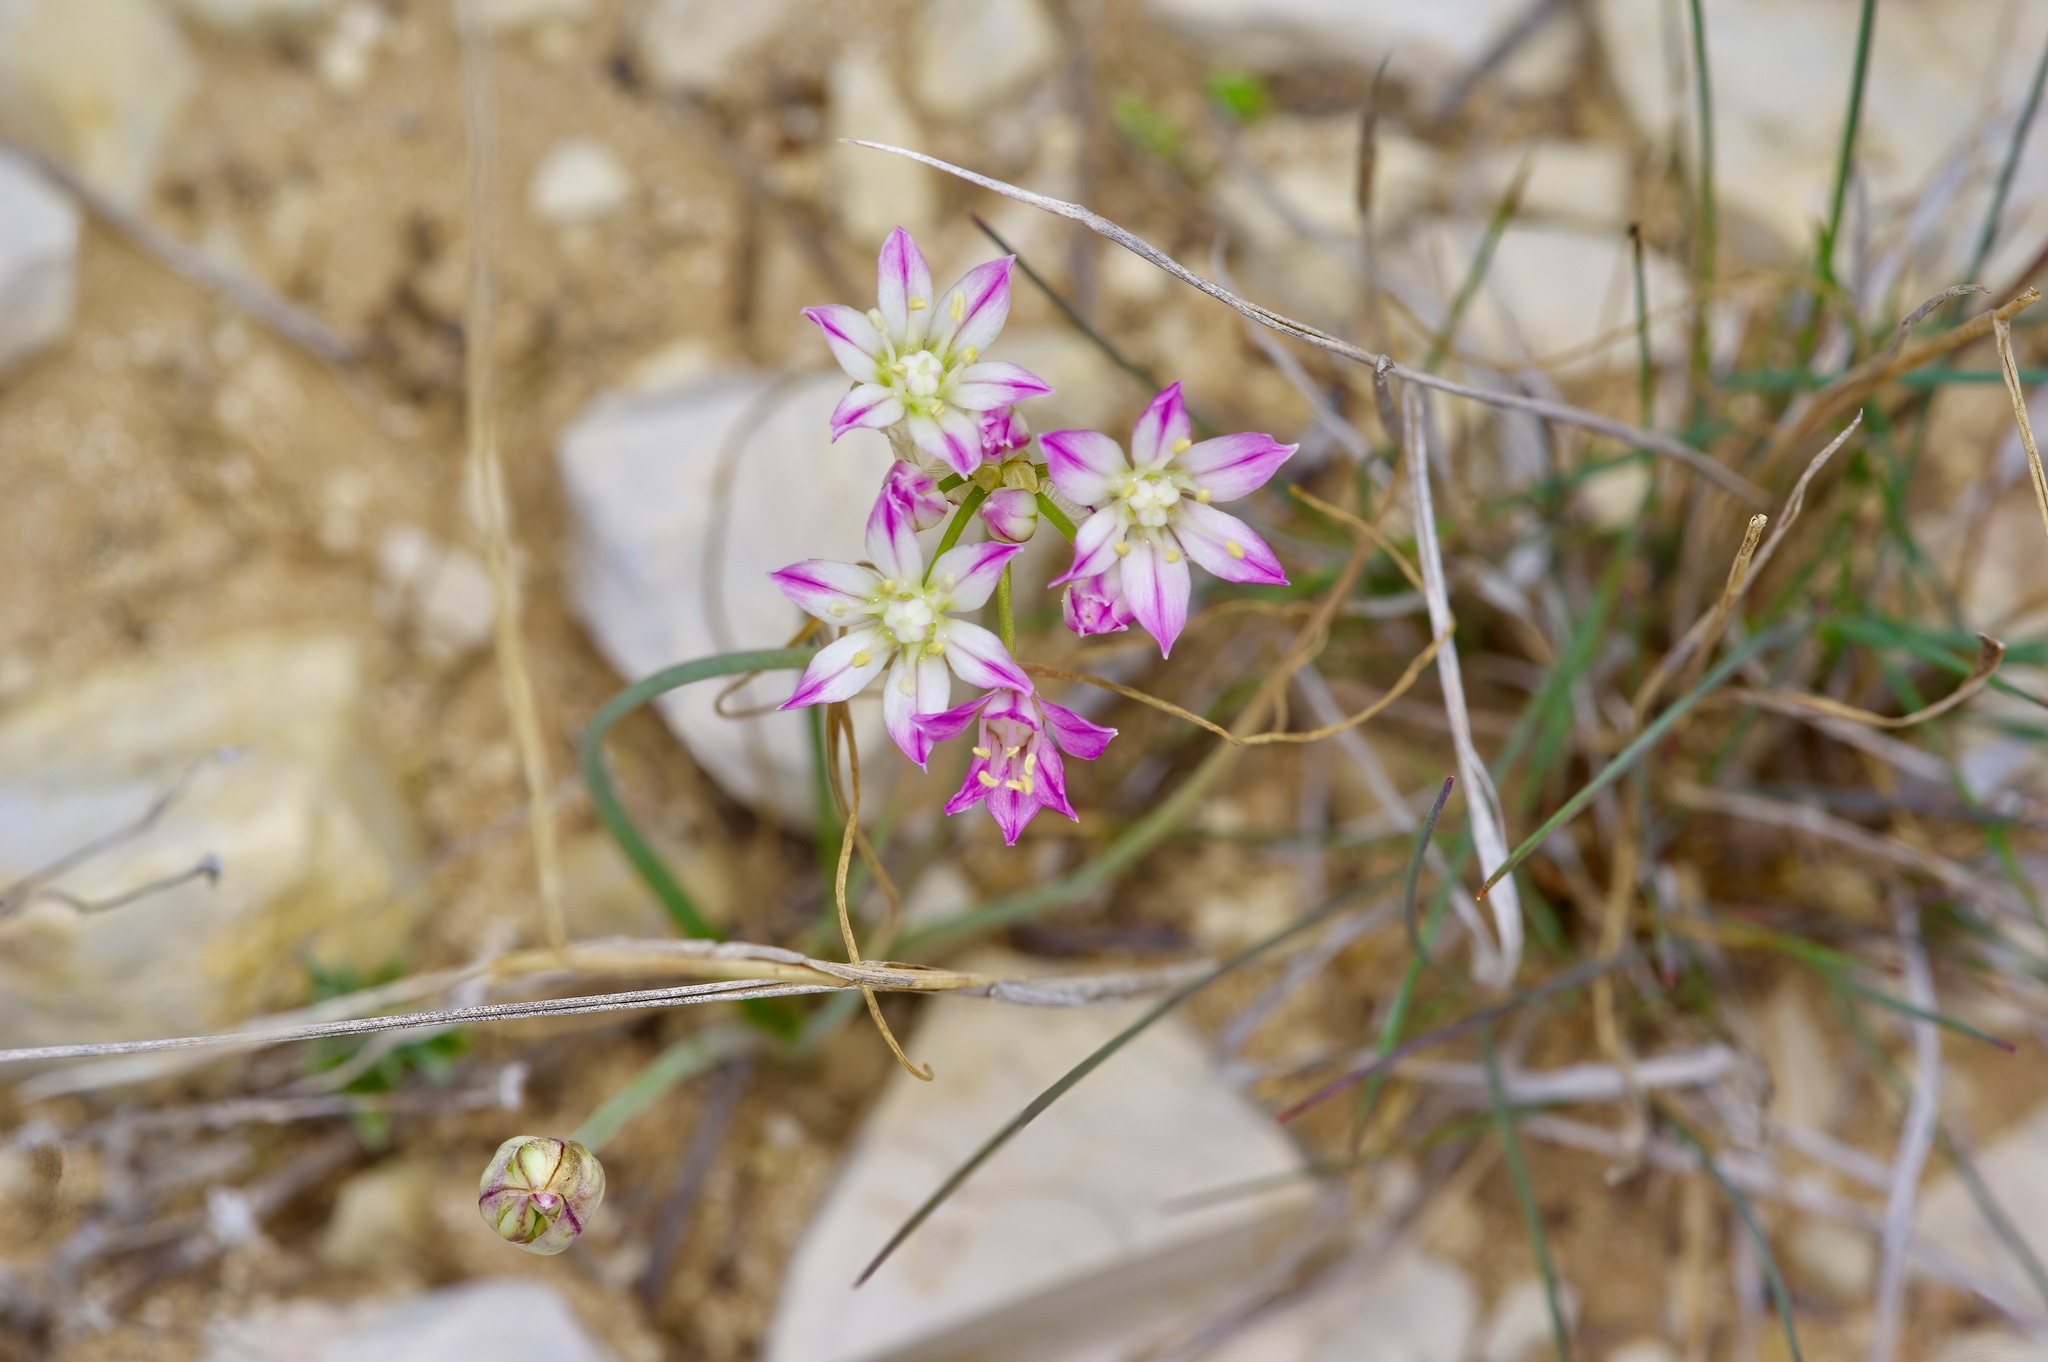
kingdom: Plantae
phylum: Tracheophyta
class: Liliopsida
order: Asparagales
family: Amaryllidaceae
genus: Allium
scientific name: Allium drummondii
